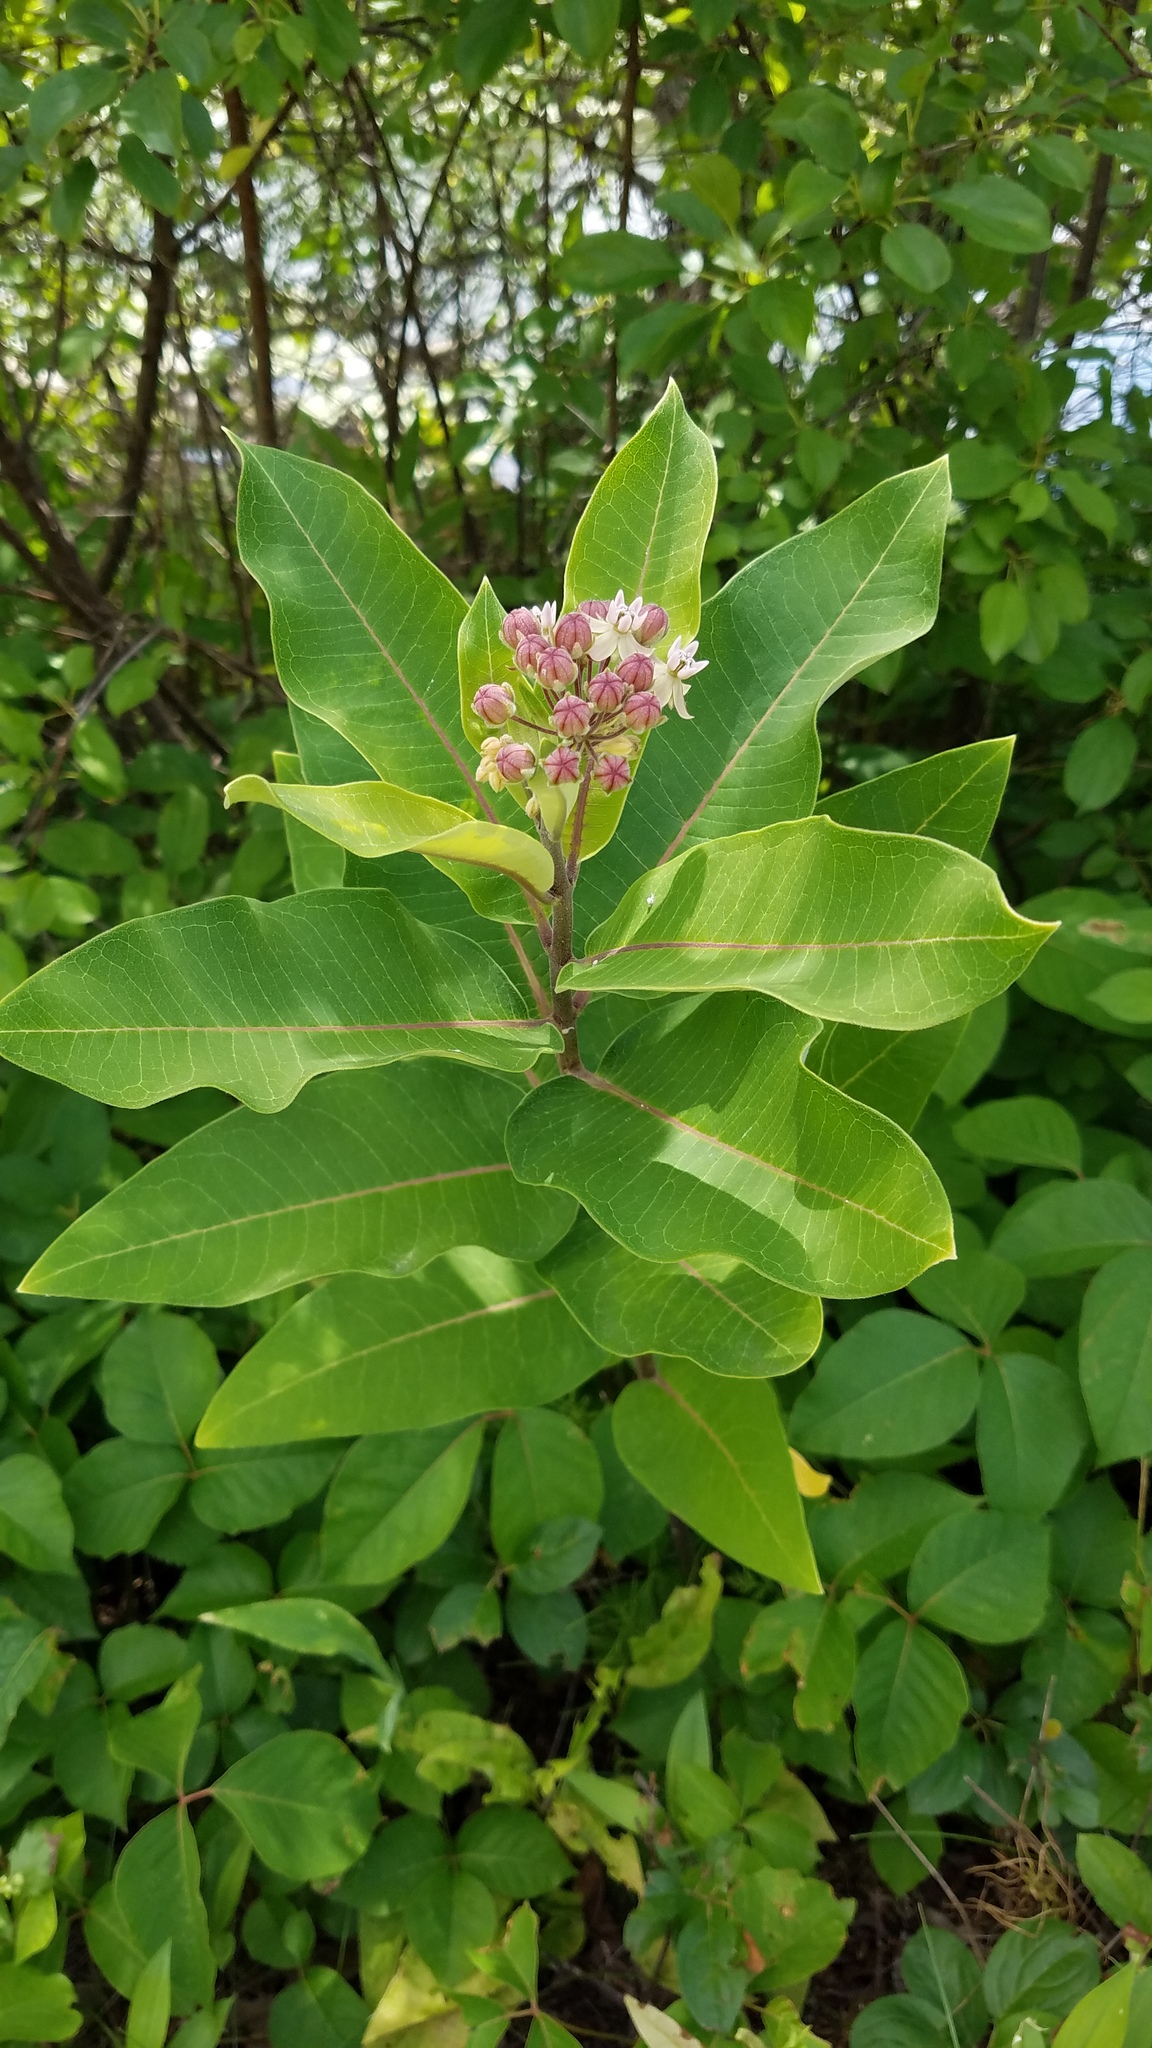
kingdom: Plantae
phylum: Tracheophyta
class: Magnoliopsida
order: Gentianales
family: Apocynaceae
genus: Asclepias
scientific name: Asclepias syriaca
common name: Common milkweed
